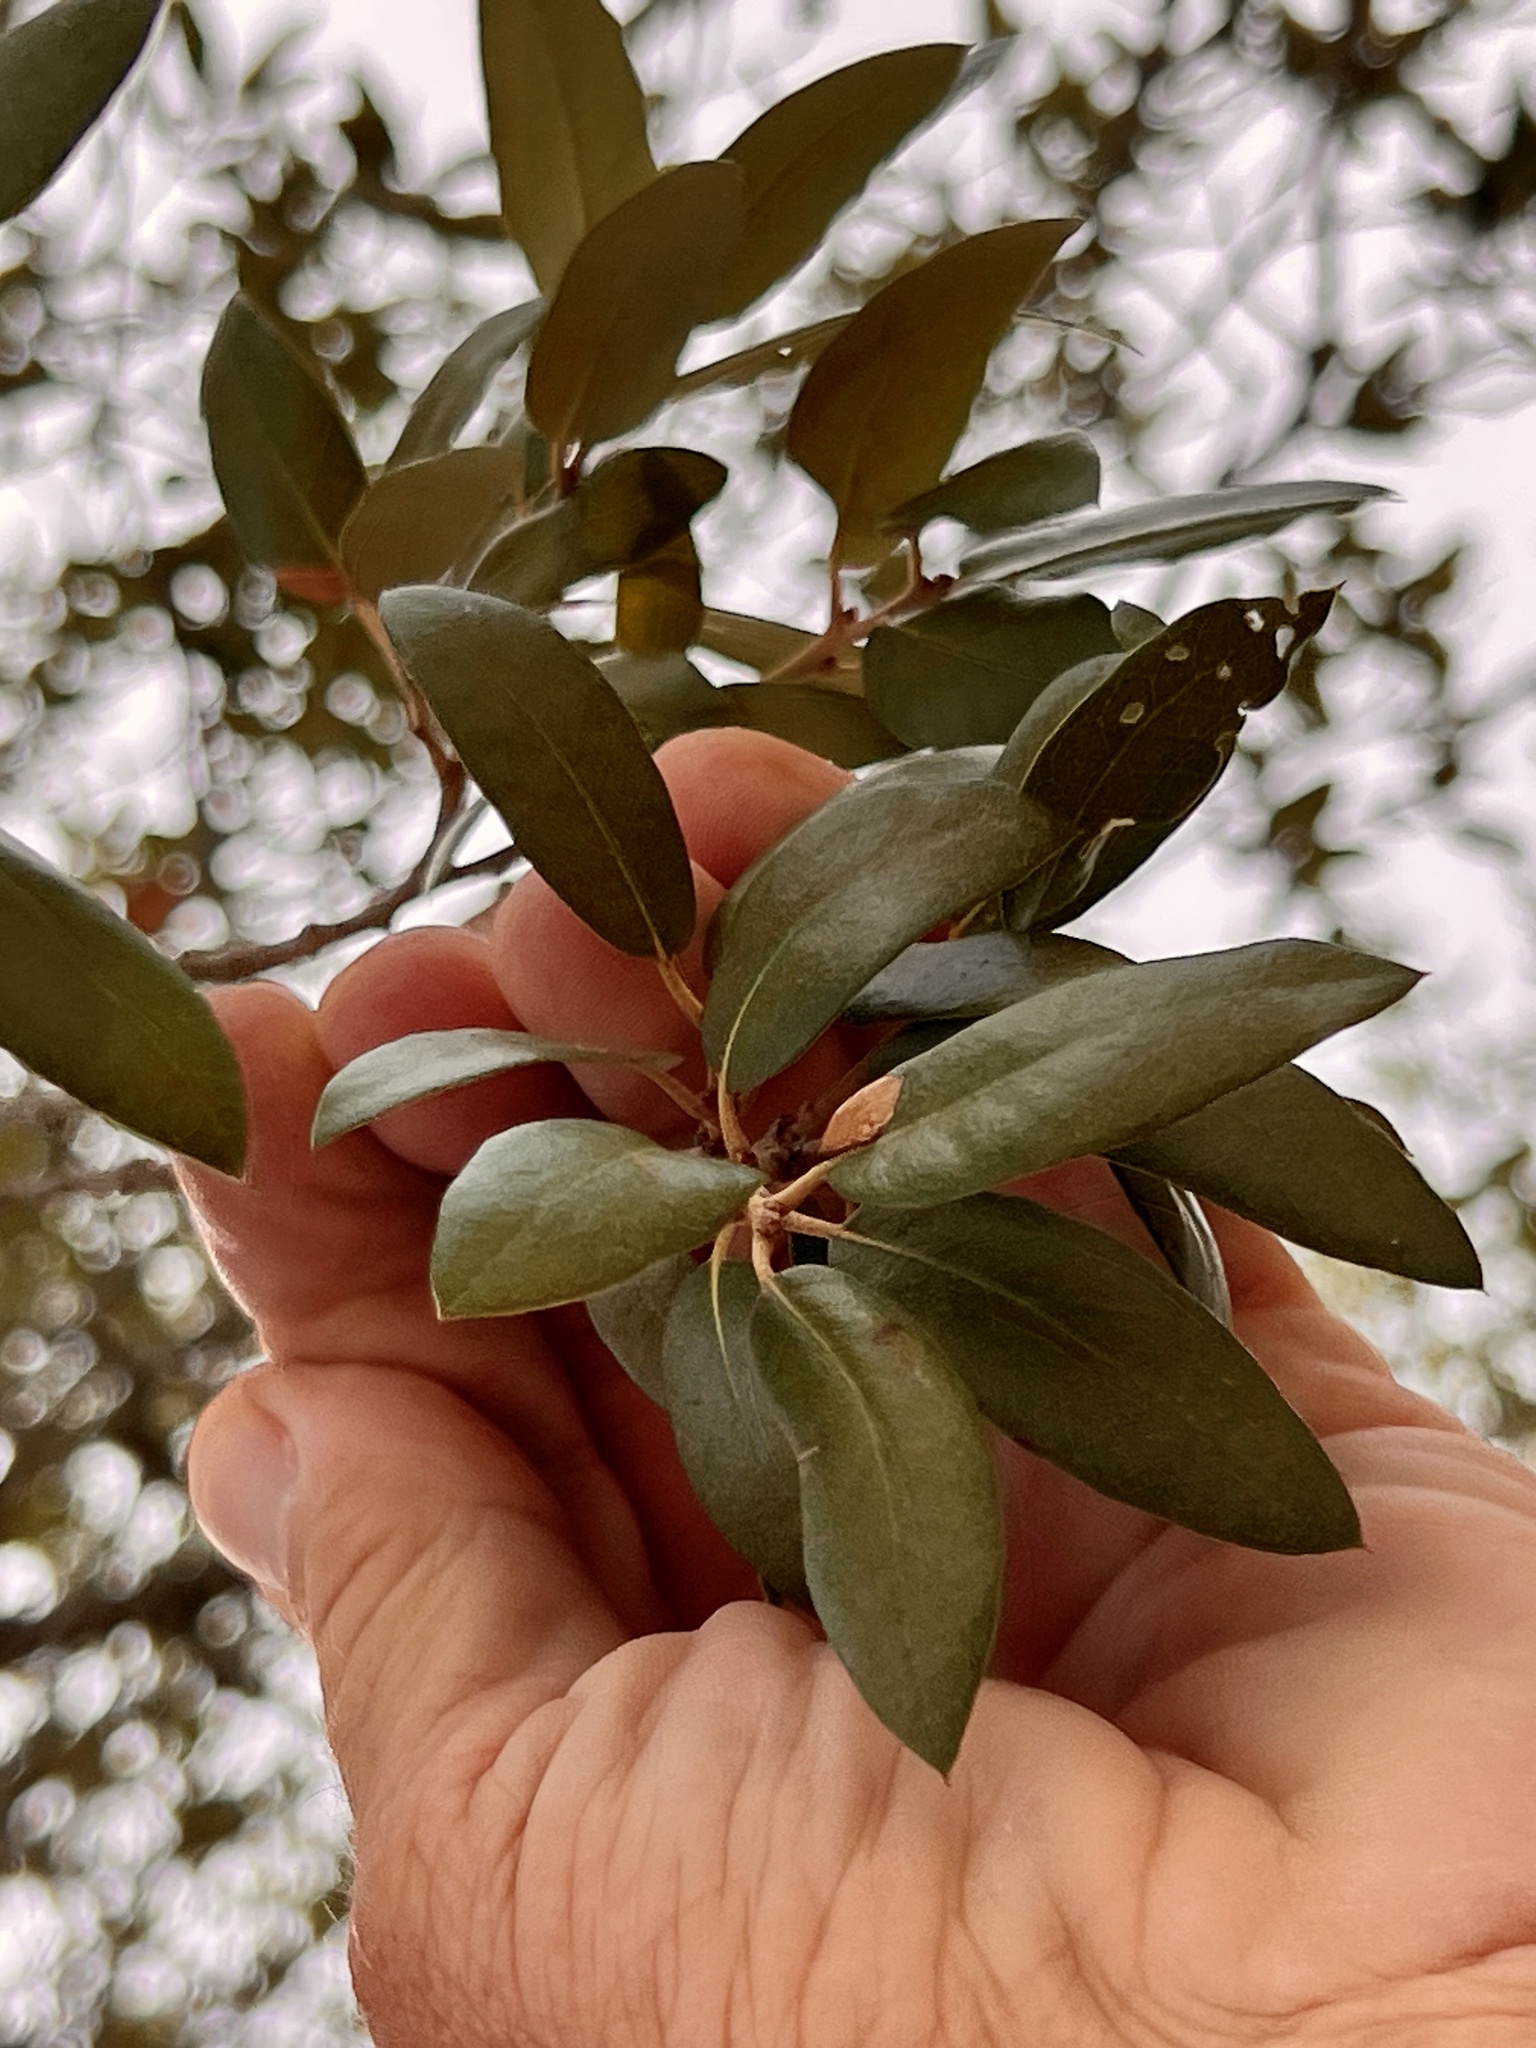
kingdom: Plantae
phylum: Tracheophyta
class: Magnoliopsida
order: Fagales
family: Fagaceae
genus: Quercus
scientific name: Quercus fusiformis
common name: Texas live oak
